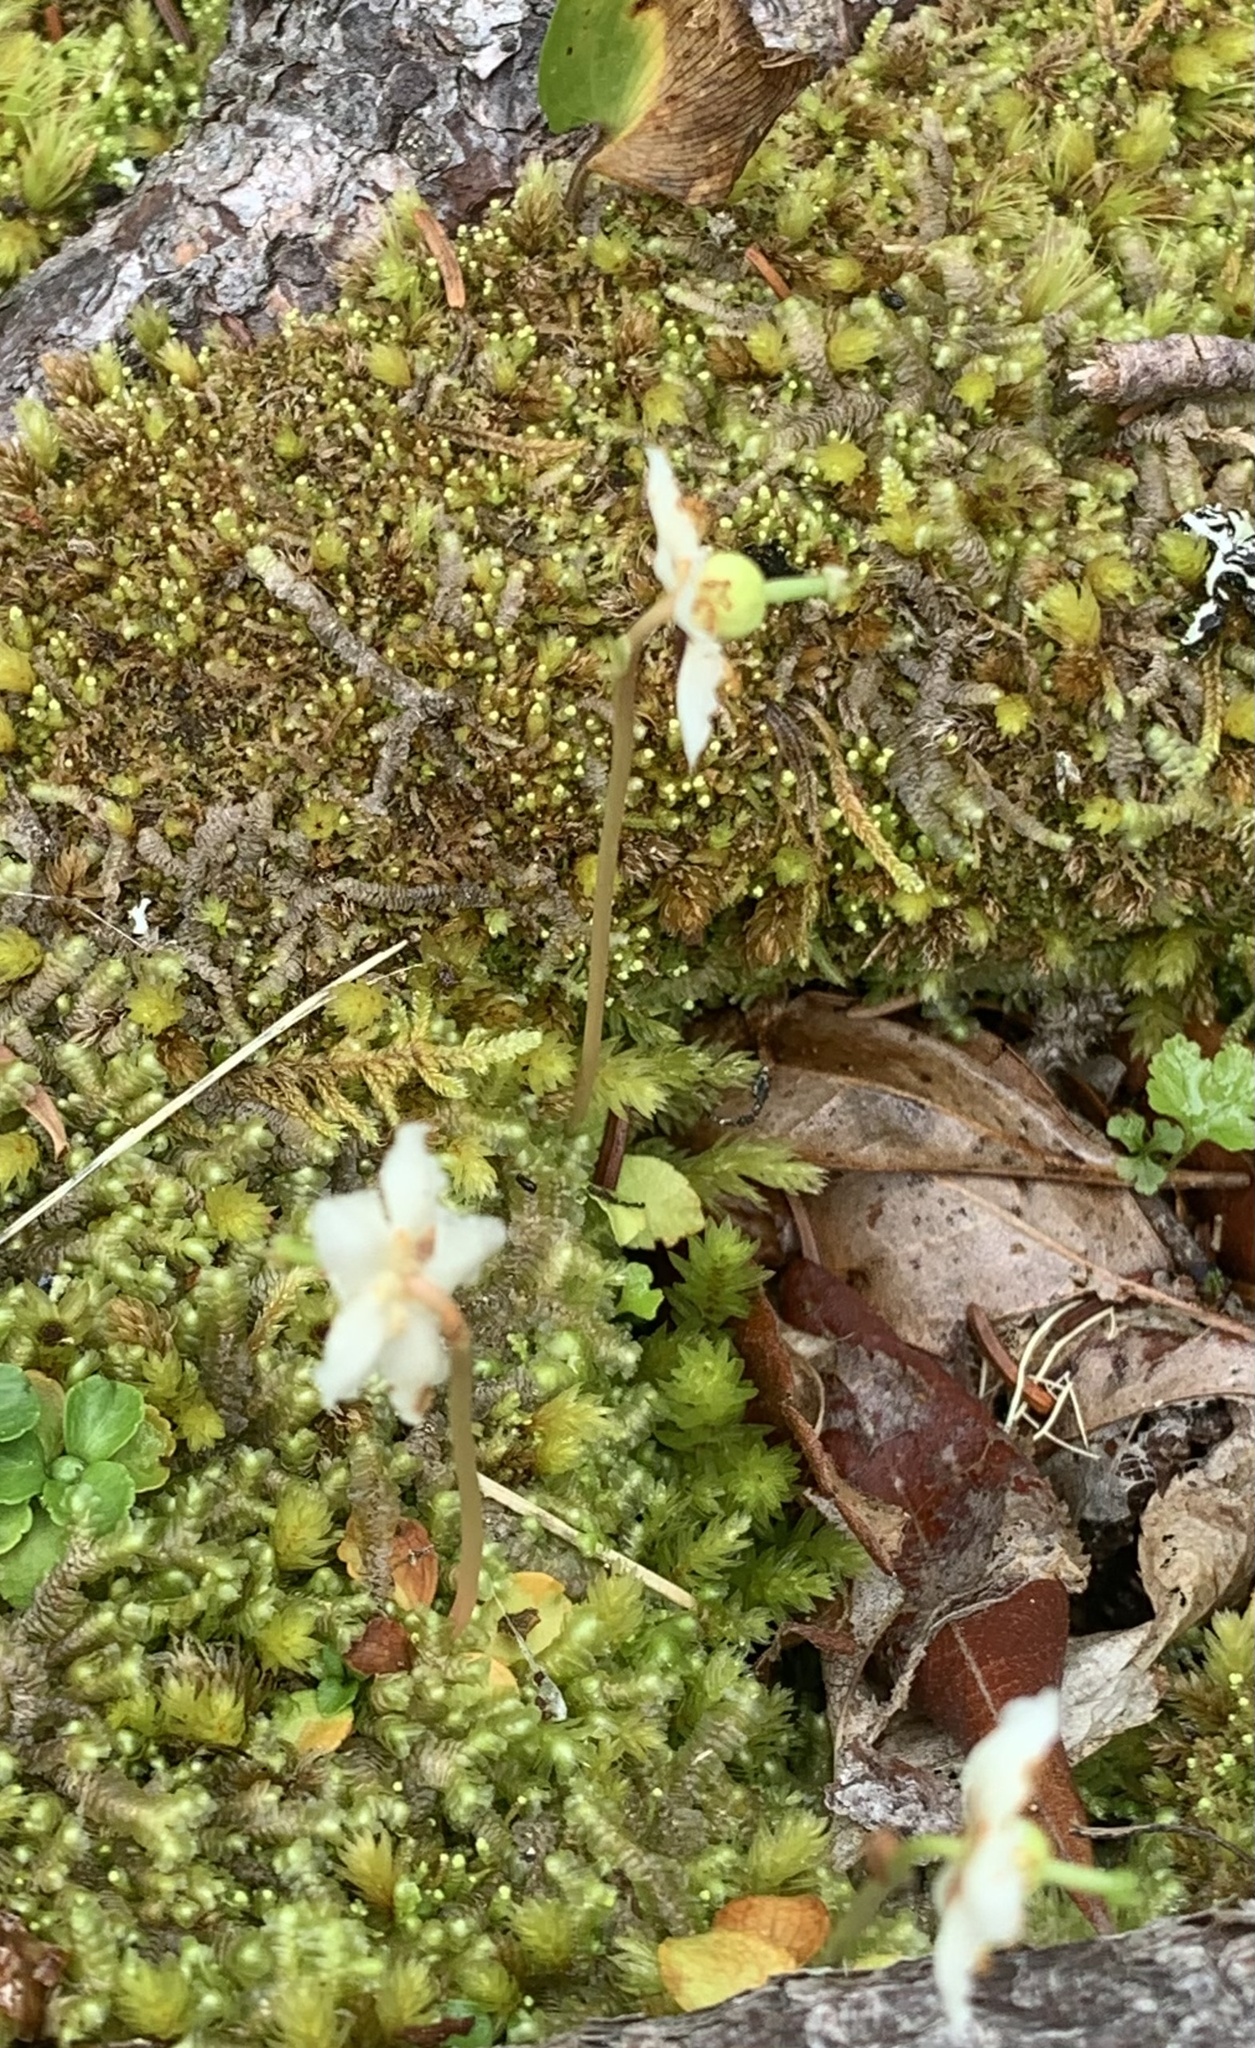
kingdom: Plantae
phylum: Tracheophyta
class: Magnoliopsida
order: Ericales
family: Ericaceae
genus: Moneses
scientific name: Moneses uniflora
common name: One-flowered wintergreen
